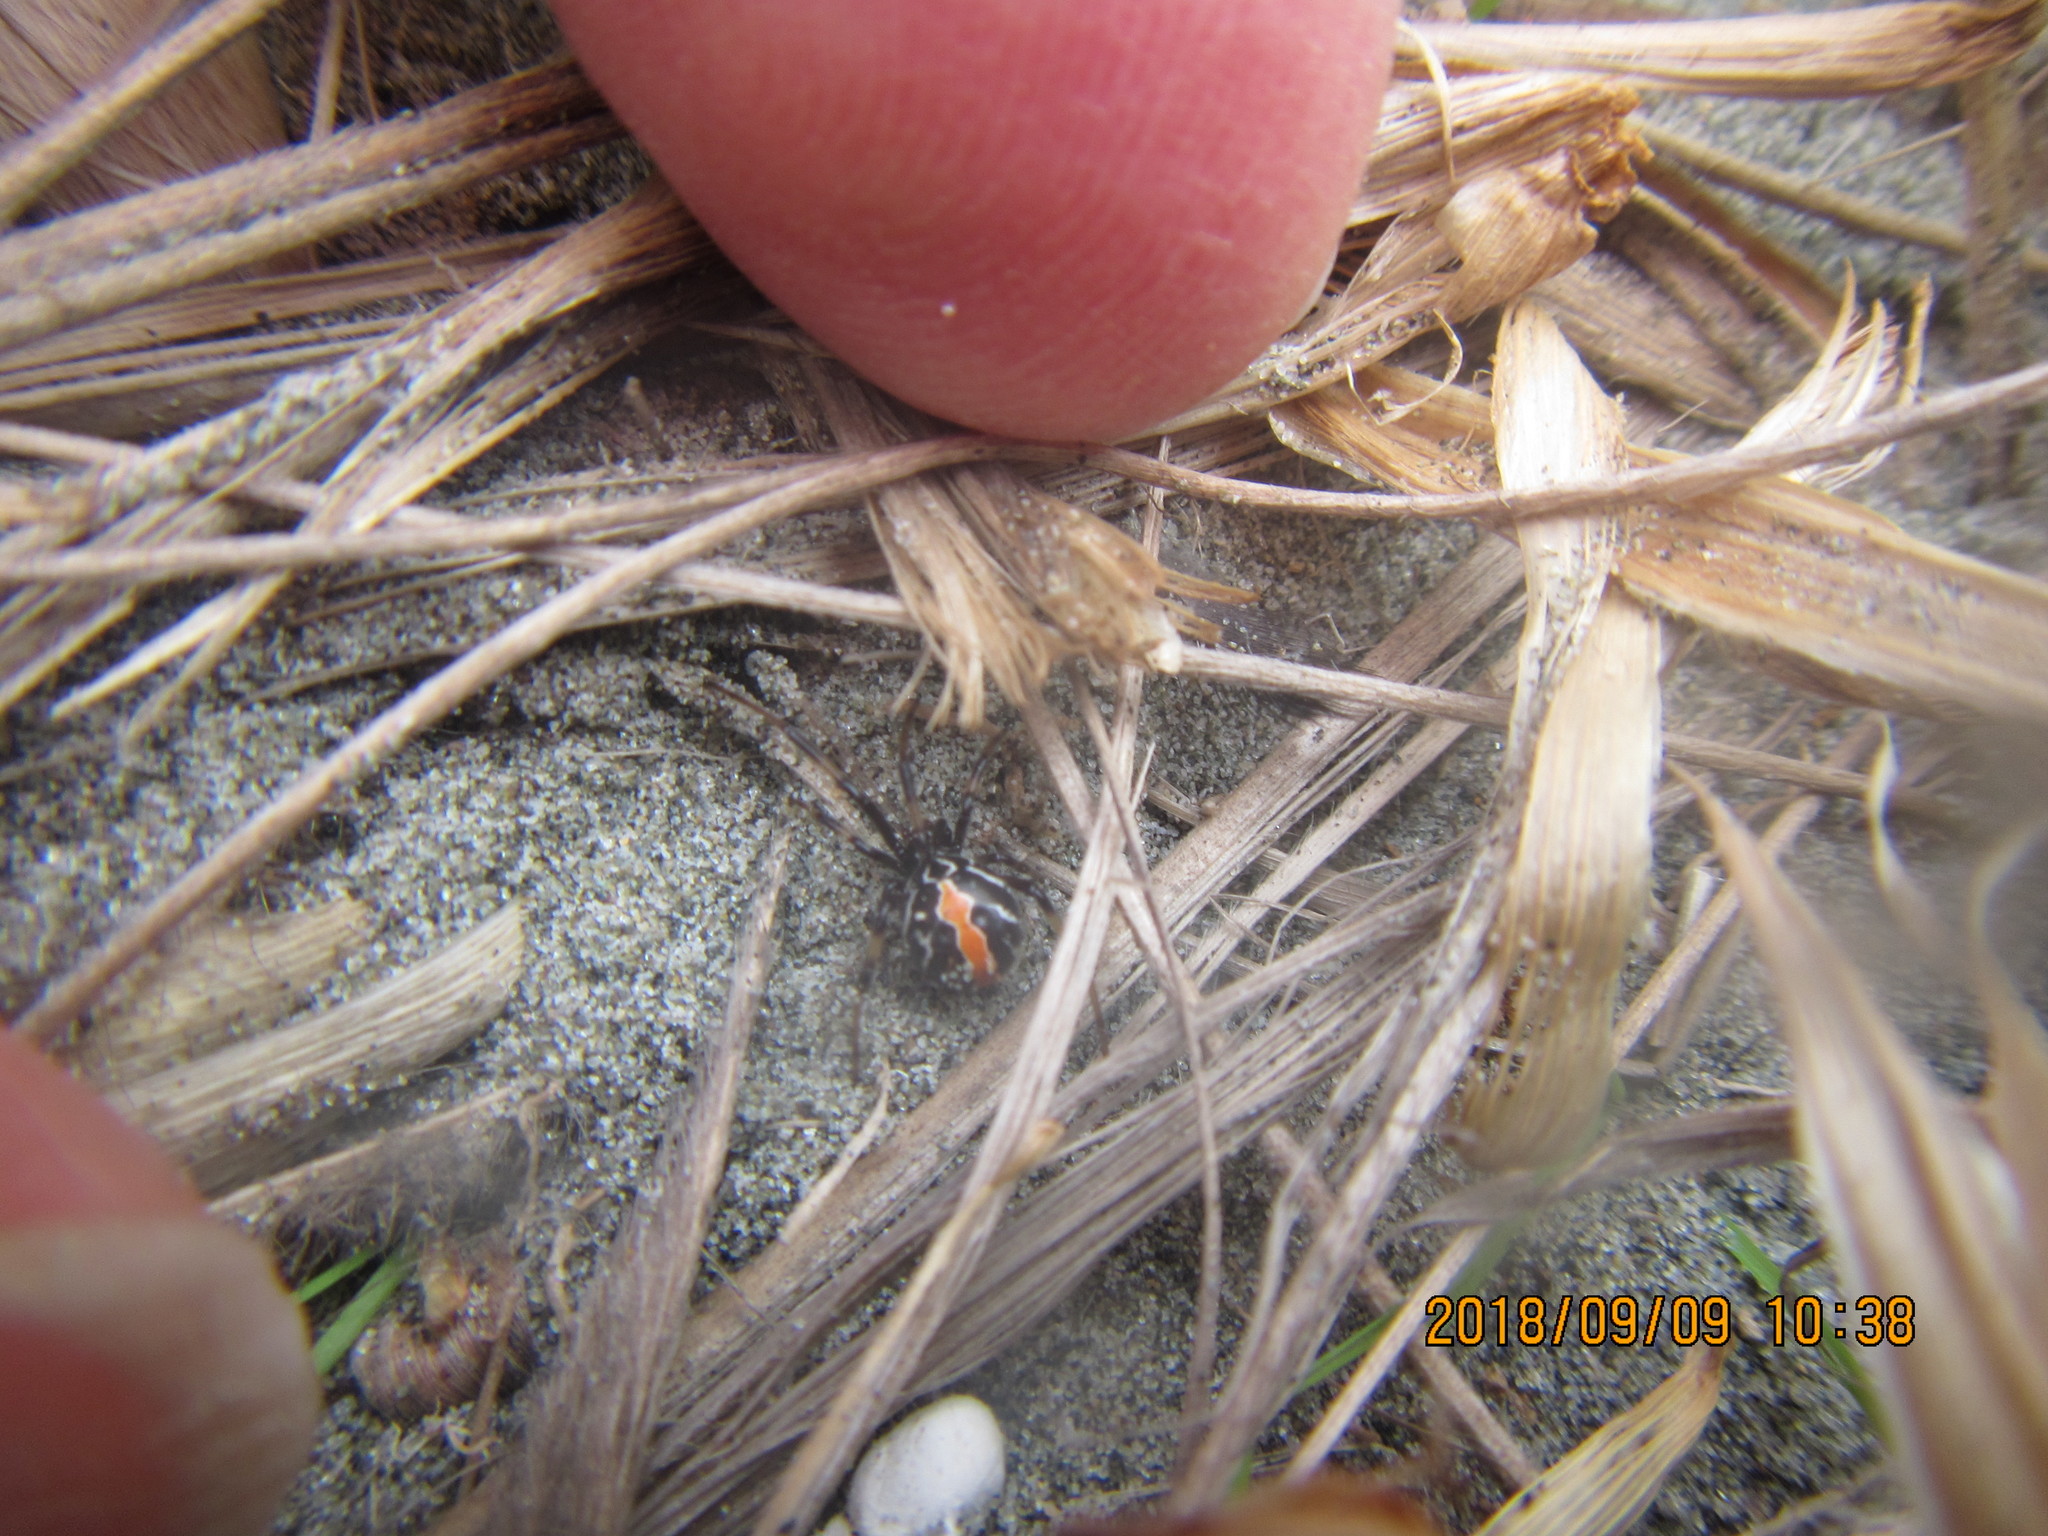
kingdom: Animalia
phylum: Arthropoda
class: Arachnida
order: Araneae
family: Theridiidae
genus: Steatoda
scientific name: Steatoda lepida
